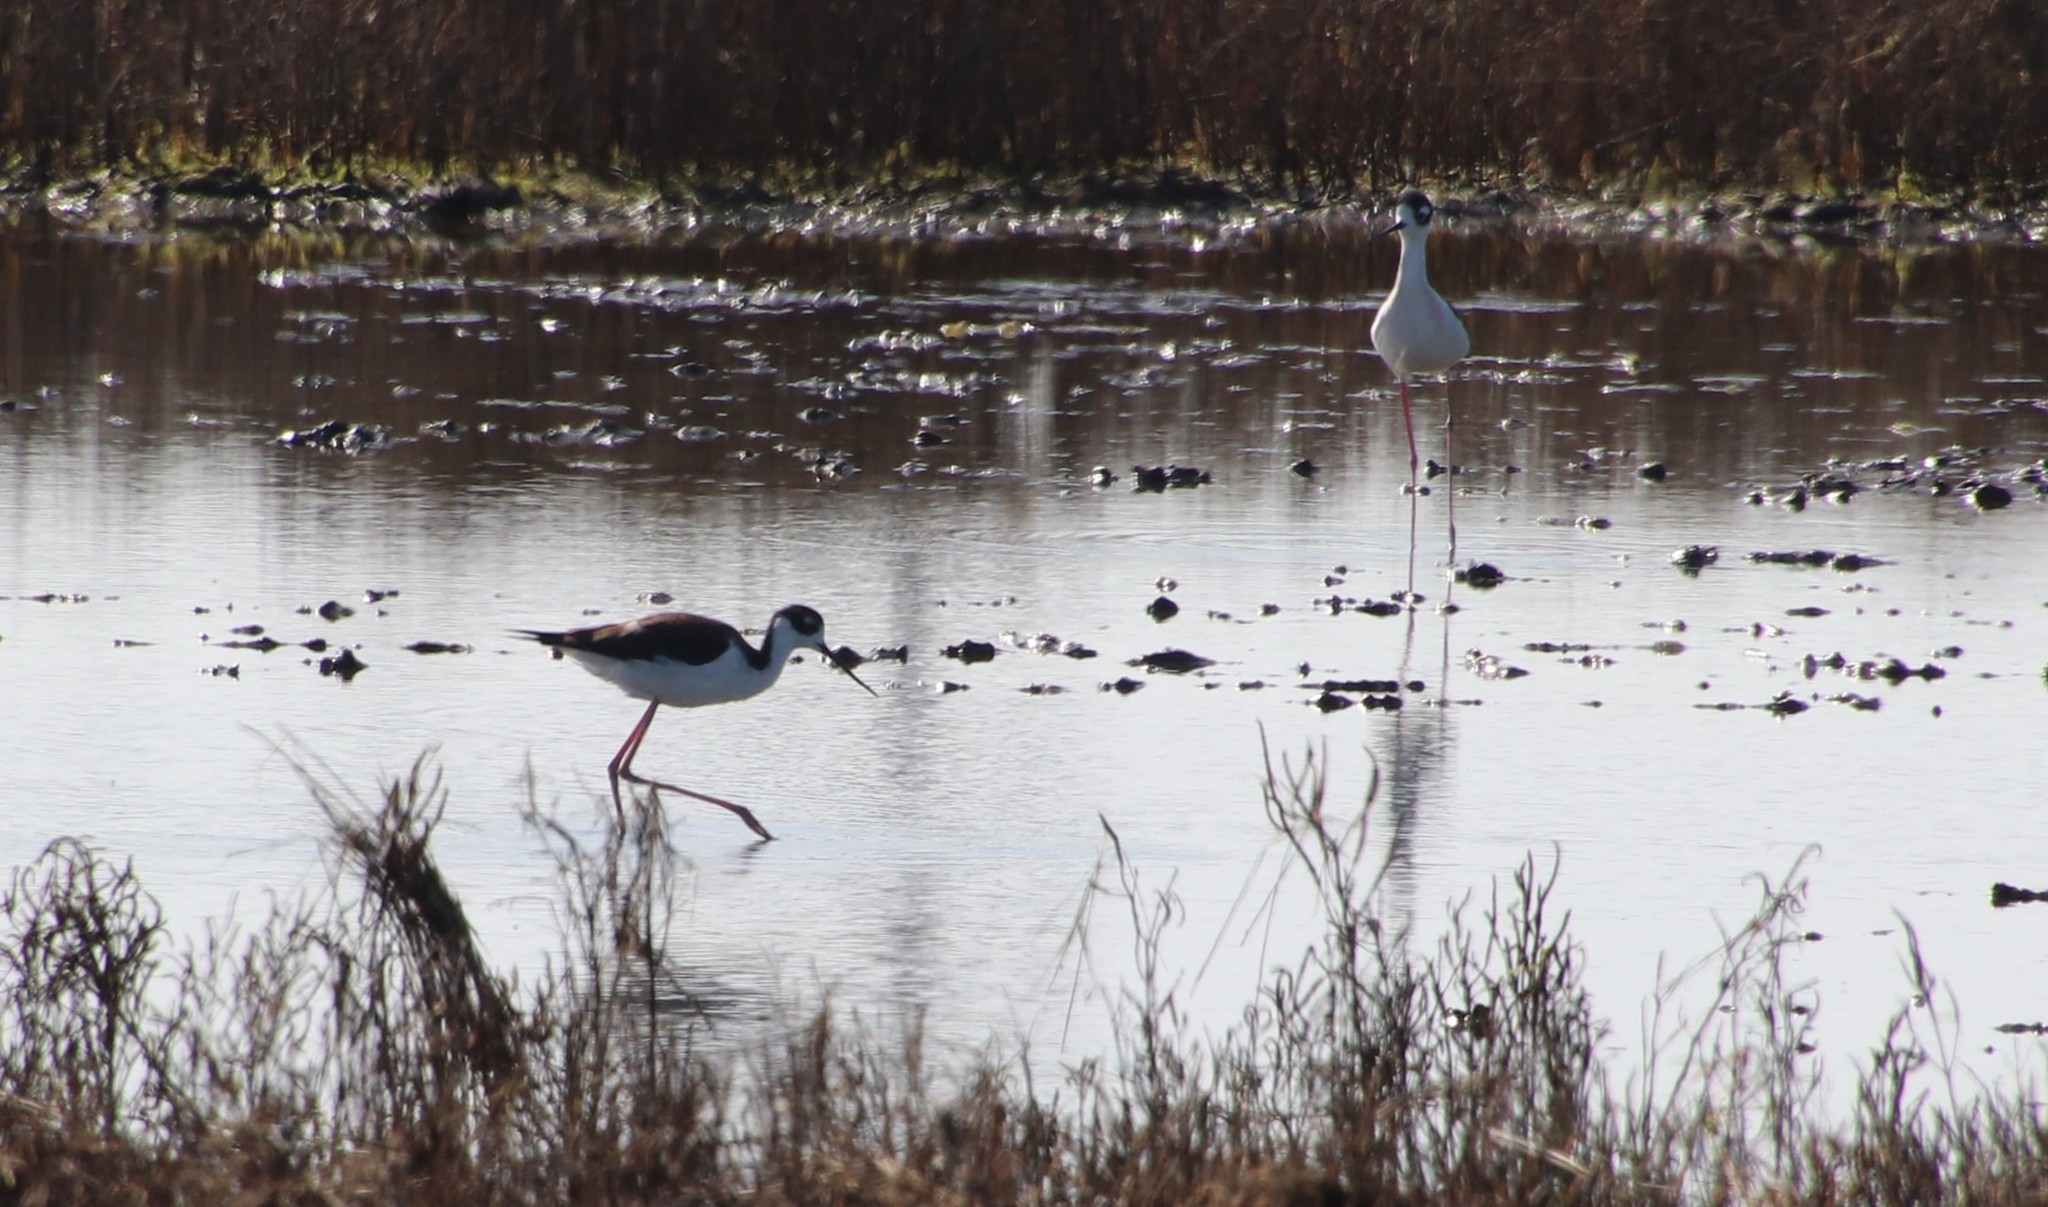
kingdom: Animalia
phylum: Chordata
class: Aves
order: Charadriiformes
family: Recurvirostridae
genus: Himantopus
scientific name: Himantopus mexicanus
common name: Black-necked stilt
